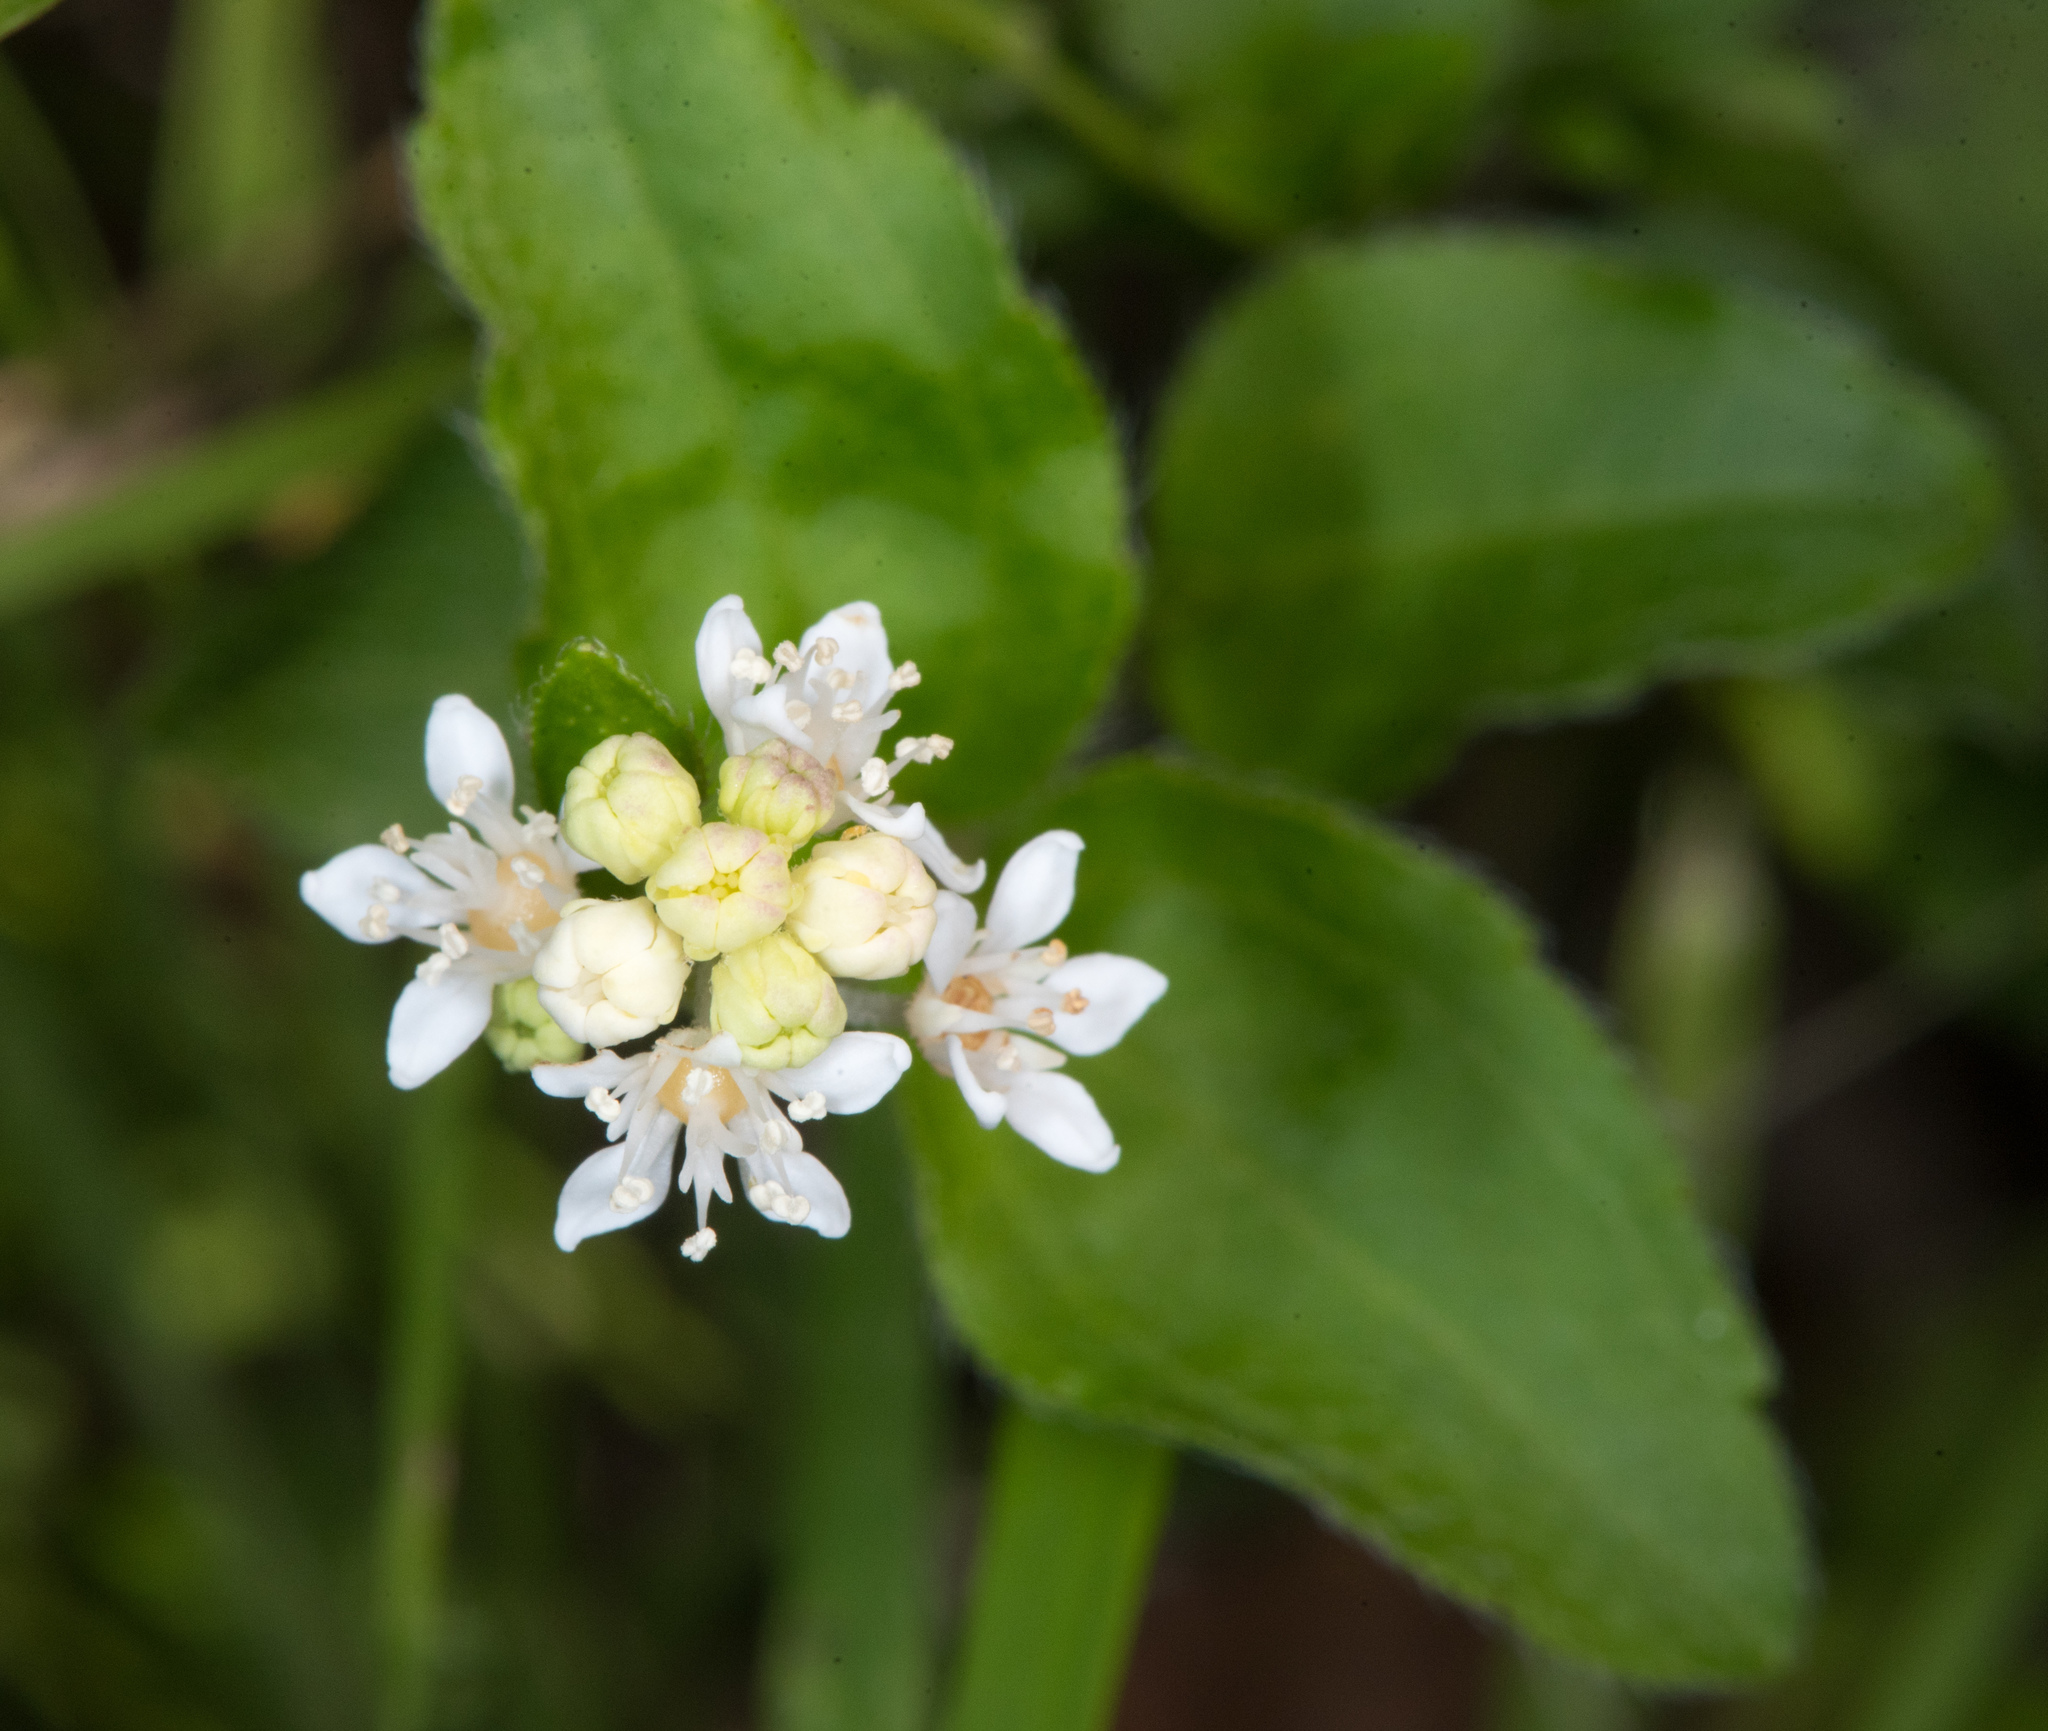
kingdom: Plantae
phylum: Tracheophyta
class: Magnoliopsida
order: Cornales
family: Hydrangeaceae
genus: Whipplea
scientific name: Whipplea modesta
